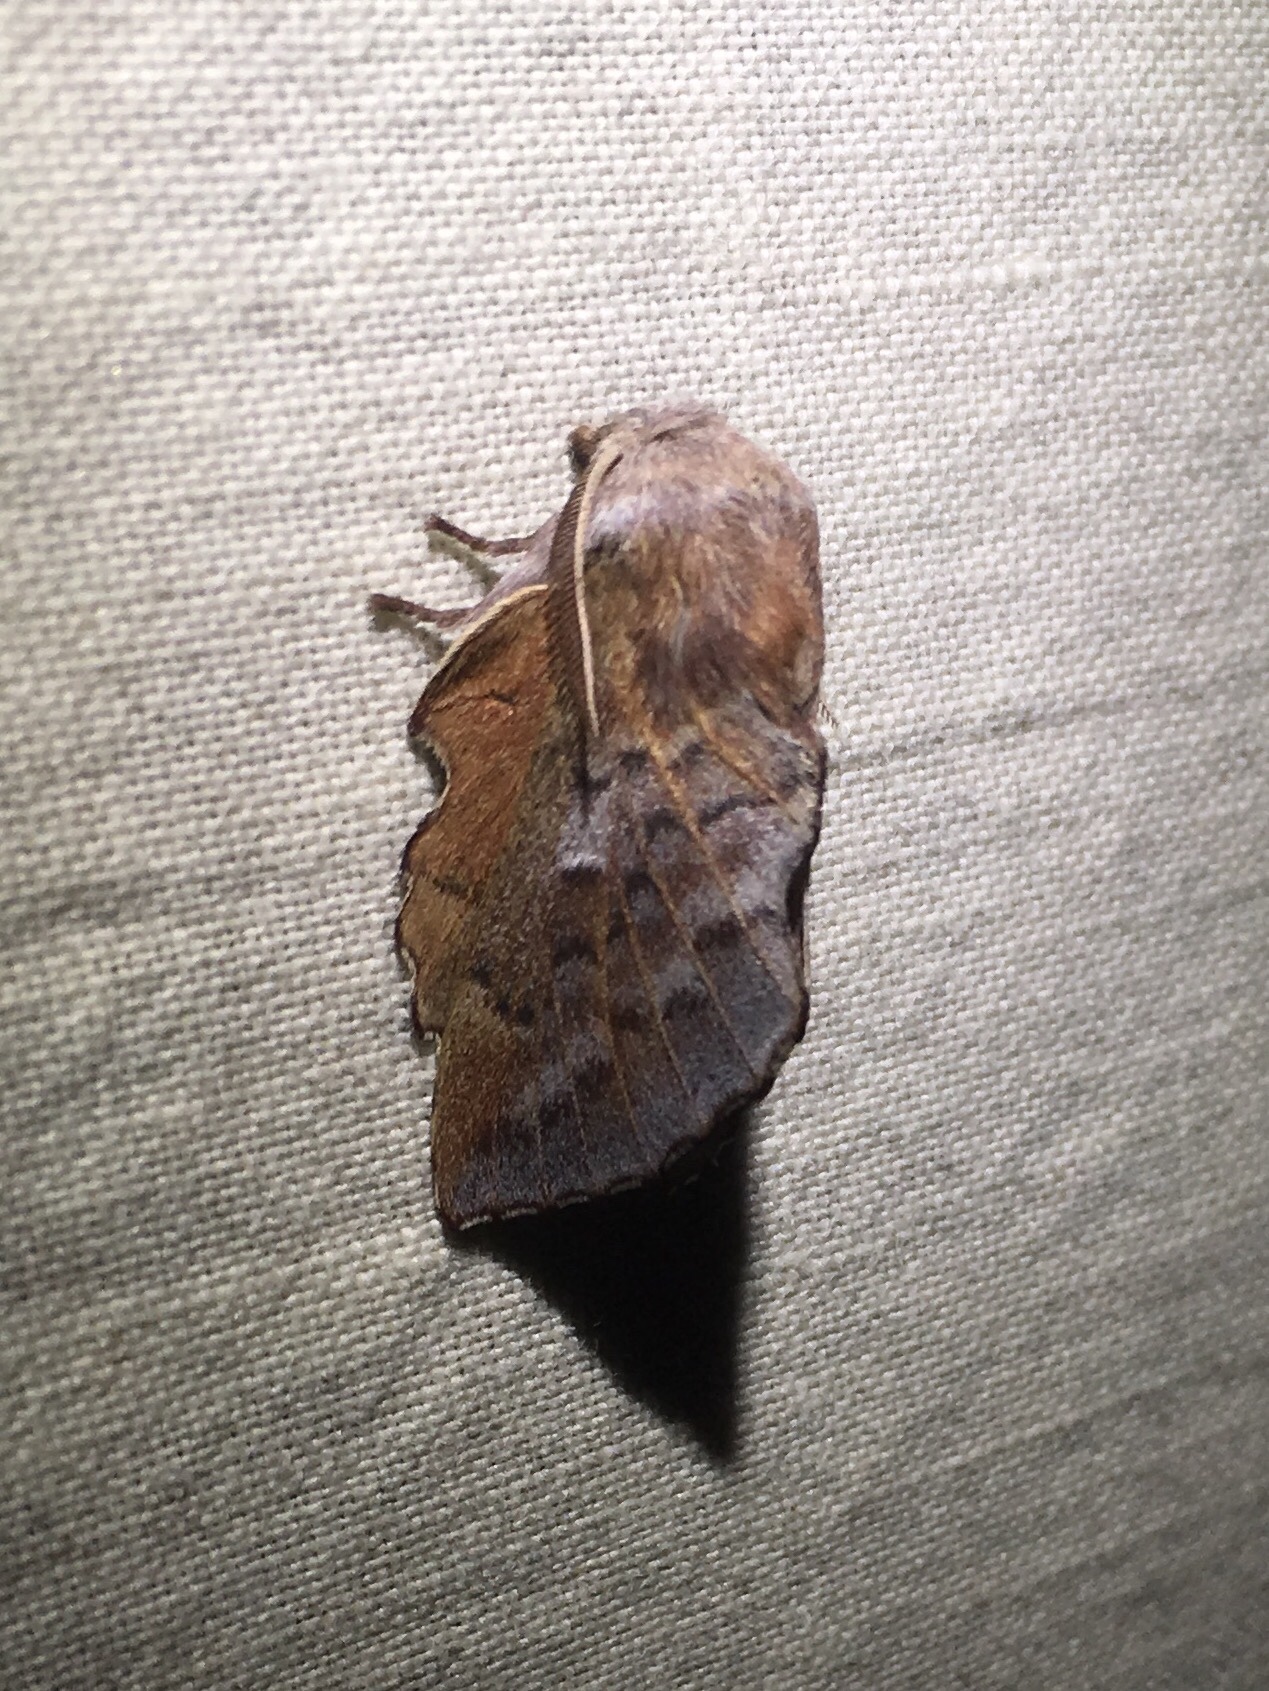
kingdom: Animalia
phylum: Arthropoda
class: Insecta
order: Lepidoptera
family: Lasiocampidae
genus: Phyllodesma
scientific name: Phyllodesma americana
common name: American lappet moth
